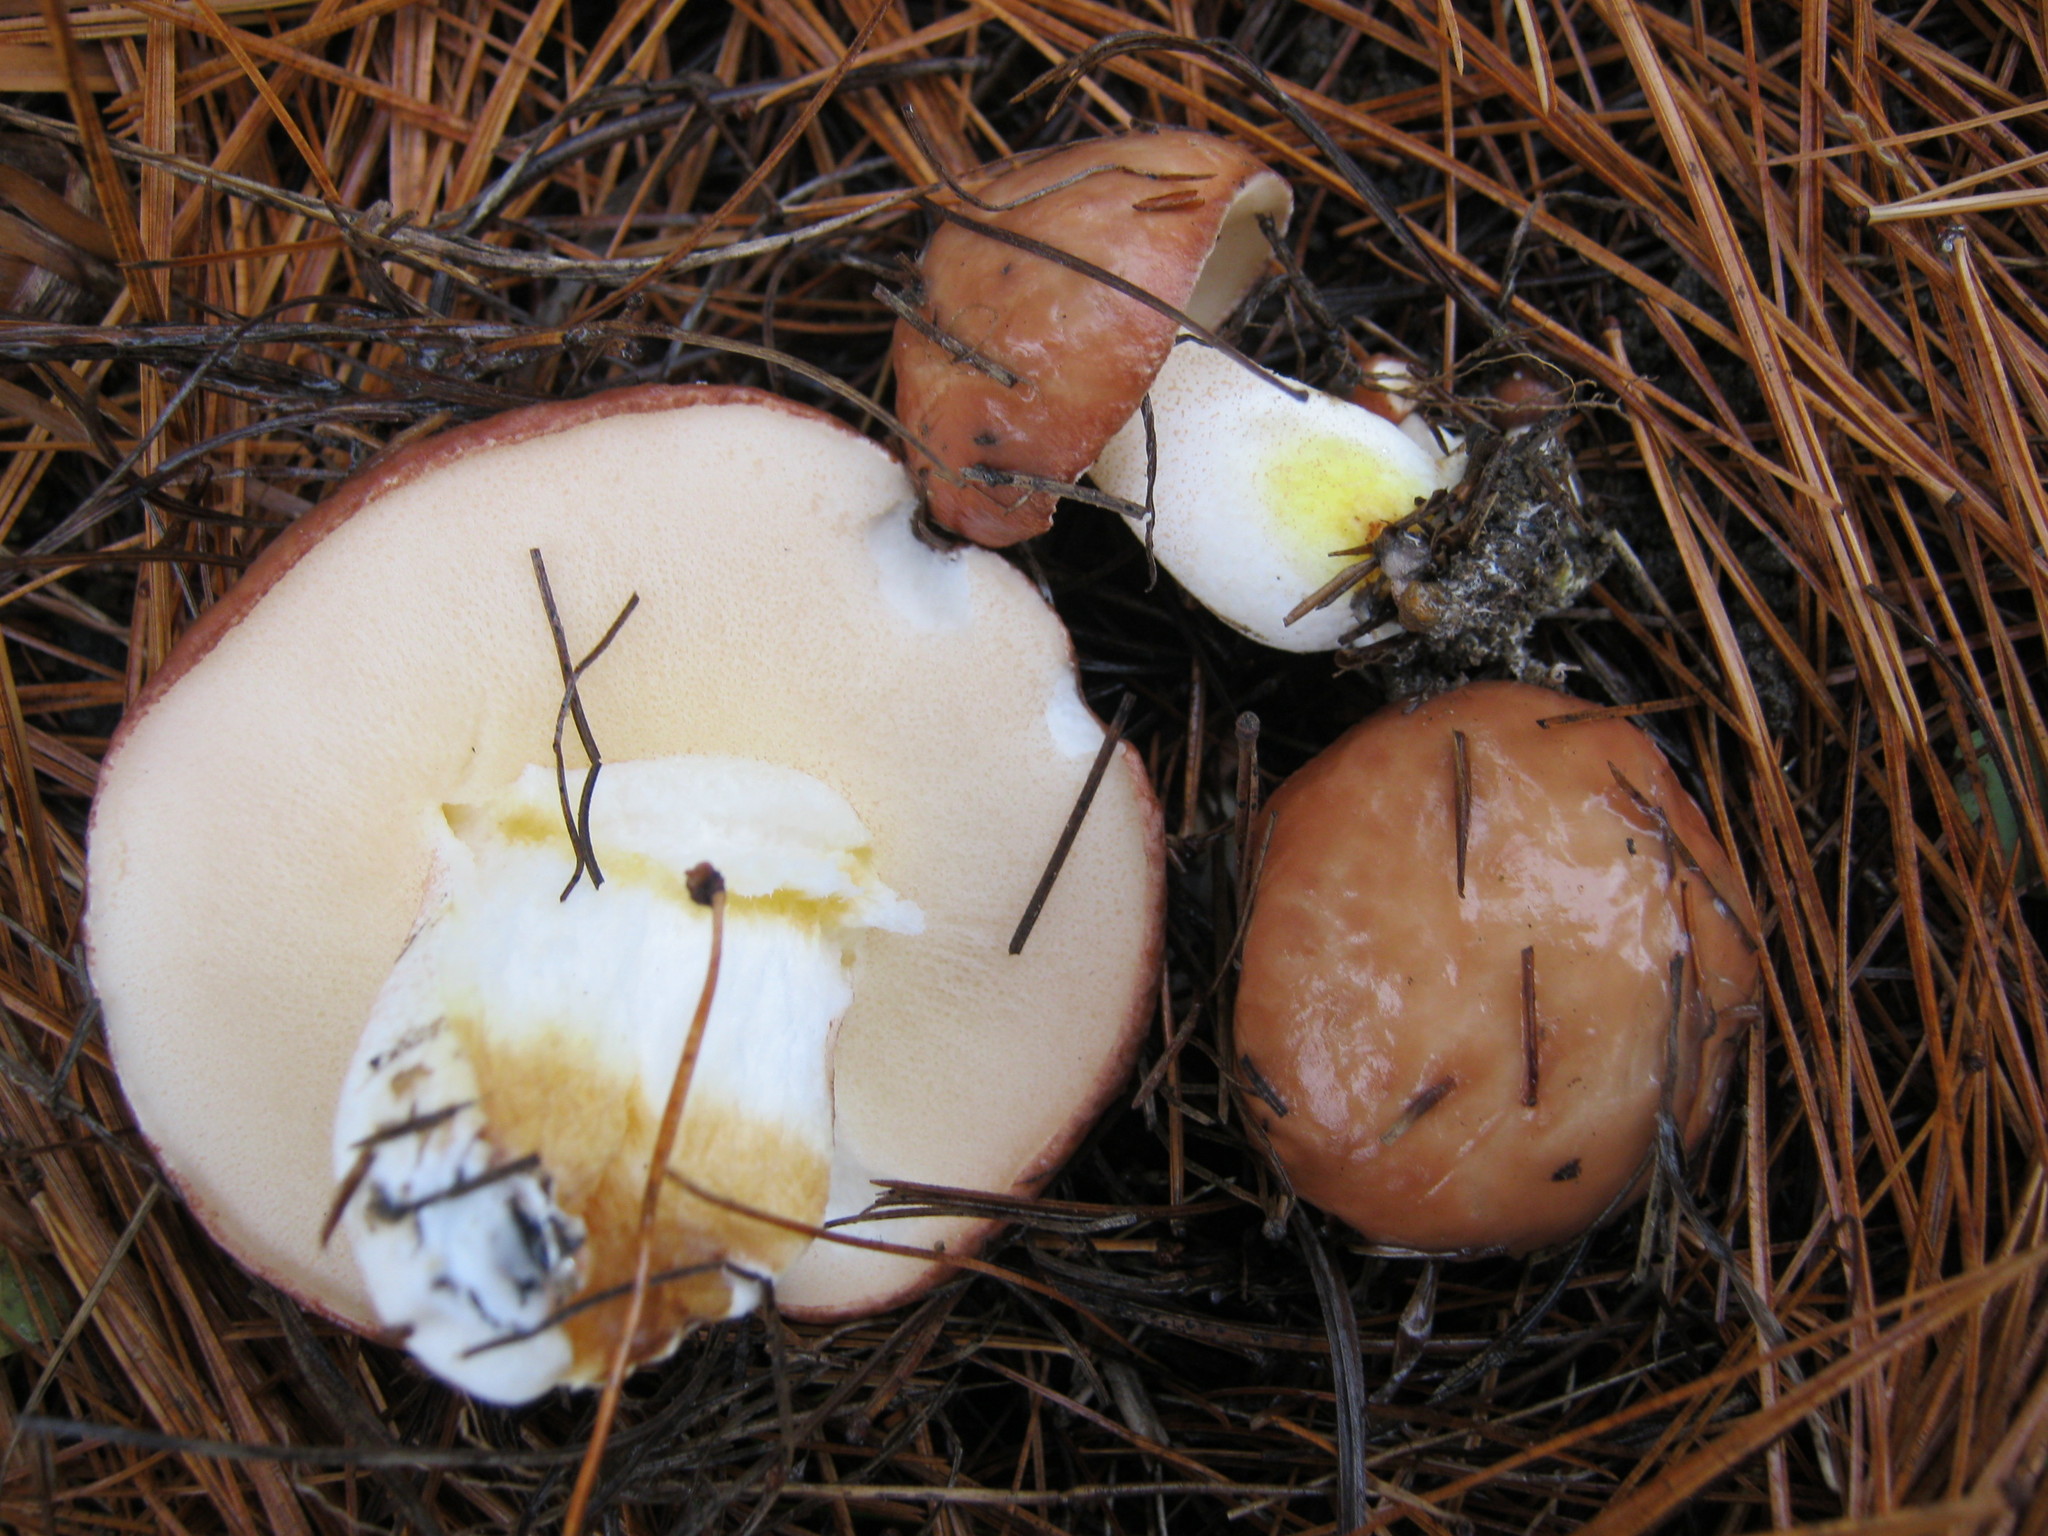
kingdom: Fungi
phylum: Basidiomycota
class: Agaricomycetes
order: Boletales
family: Suillaceae
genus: Suillus
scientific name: Suillus brevipes
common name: Short-stalked suillus
